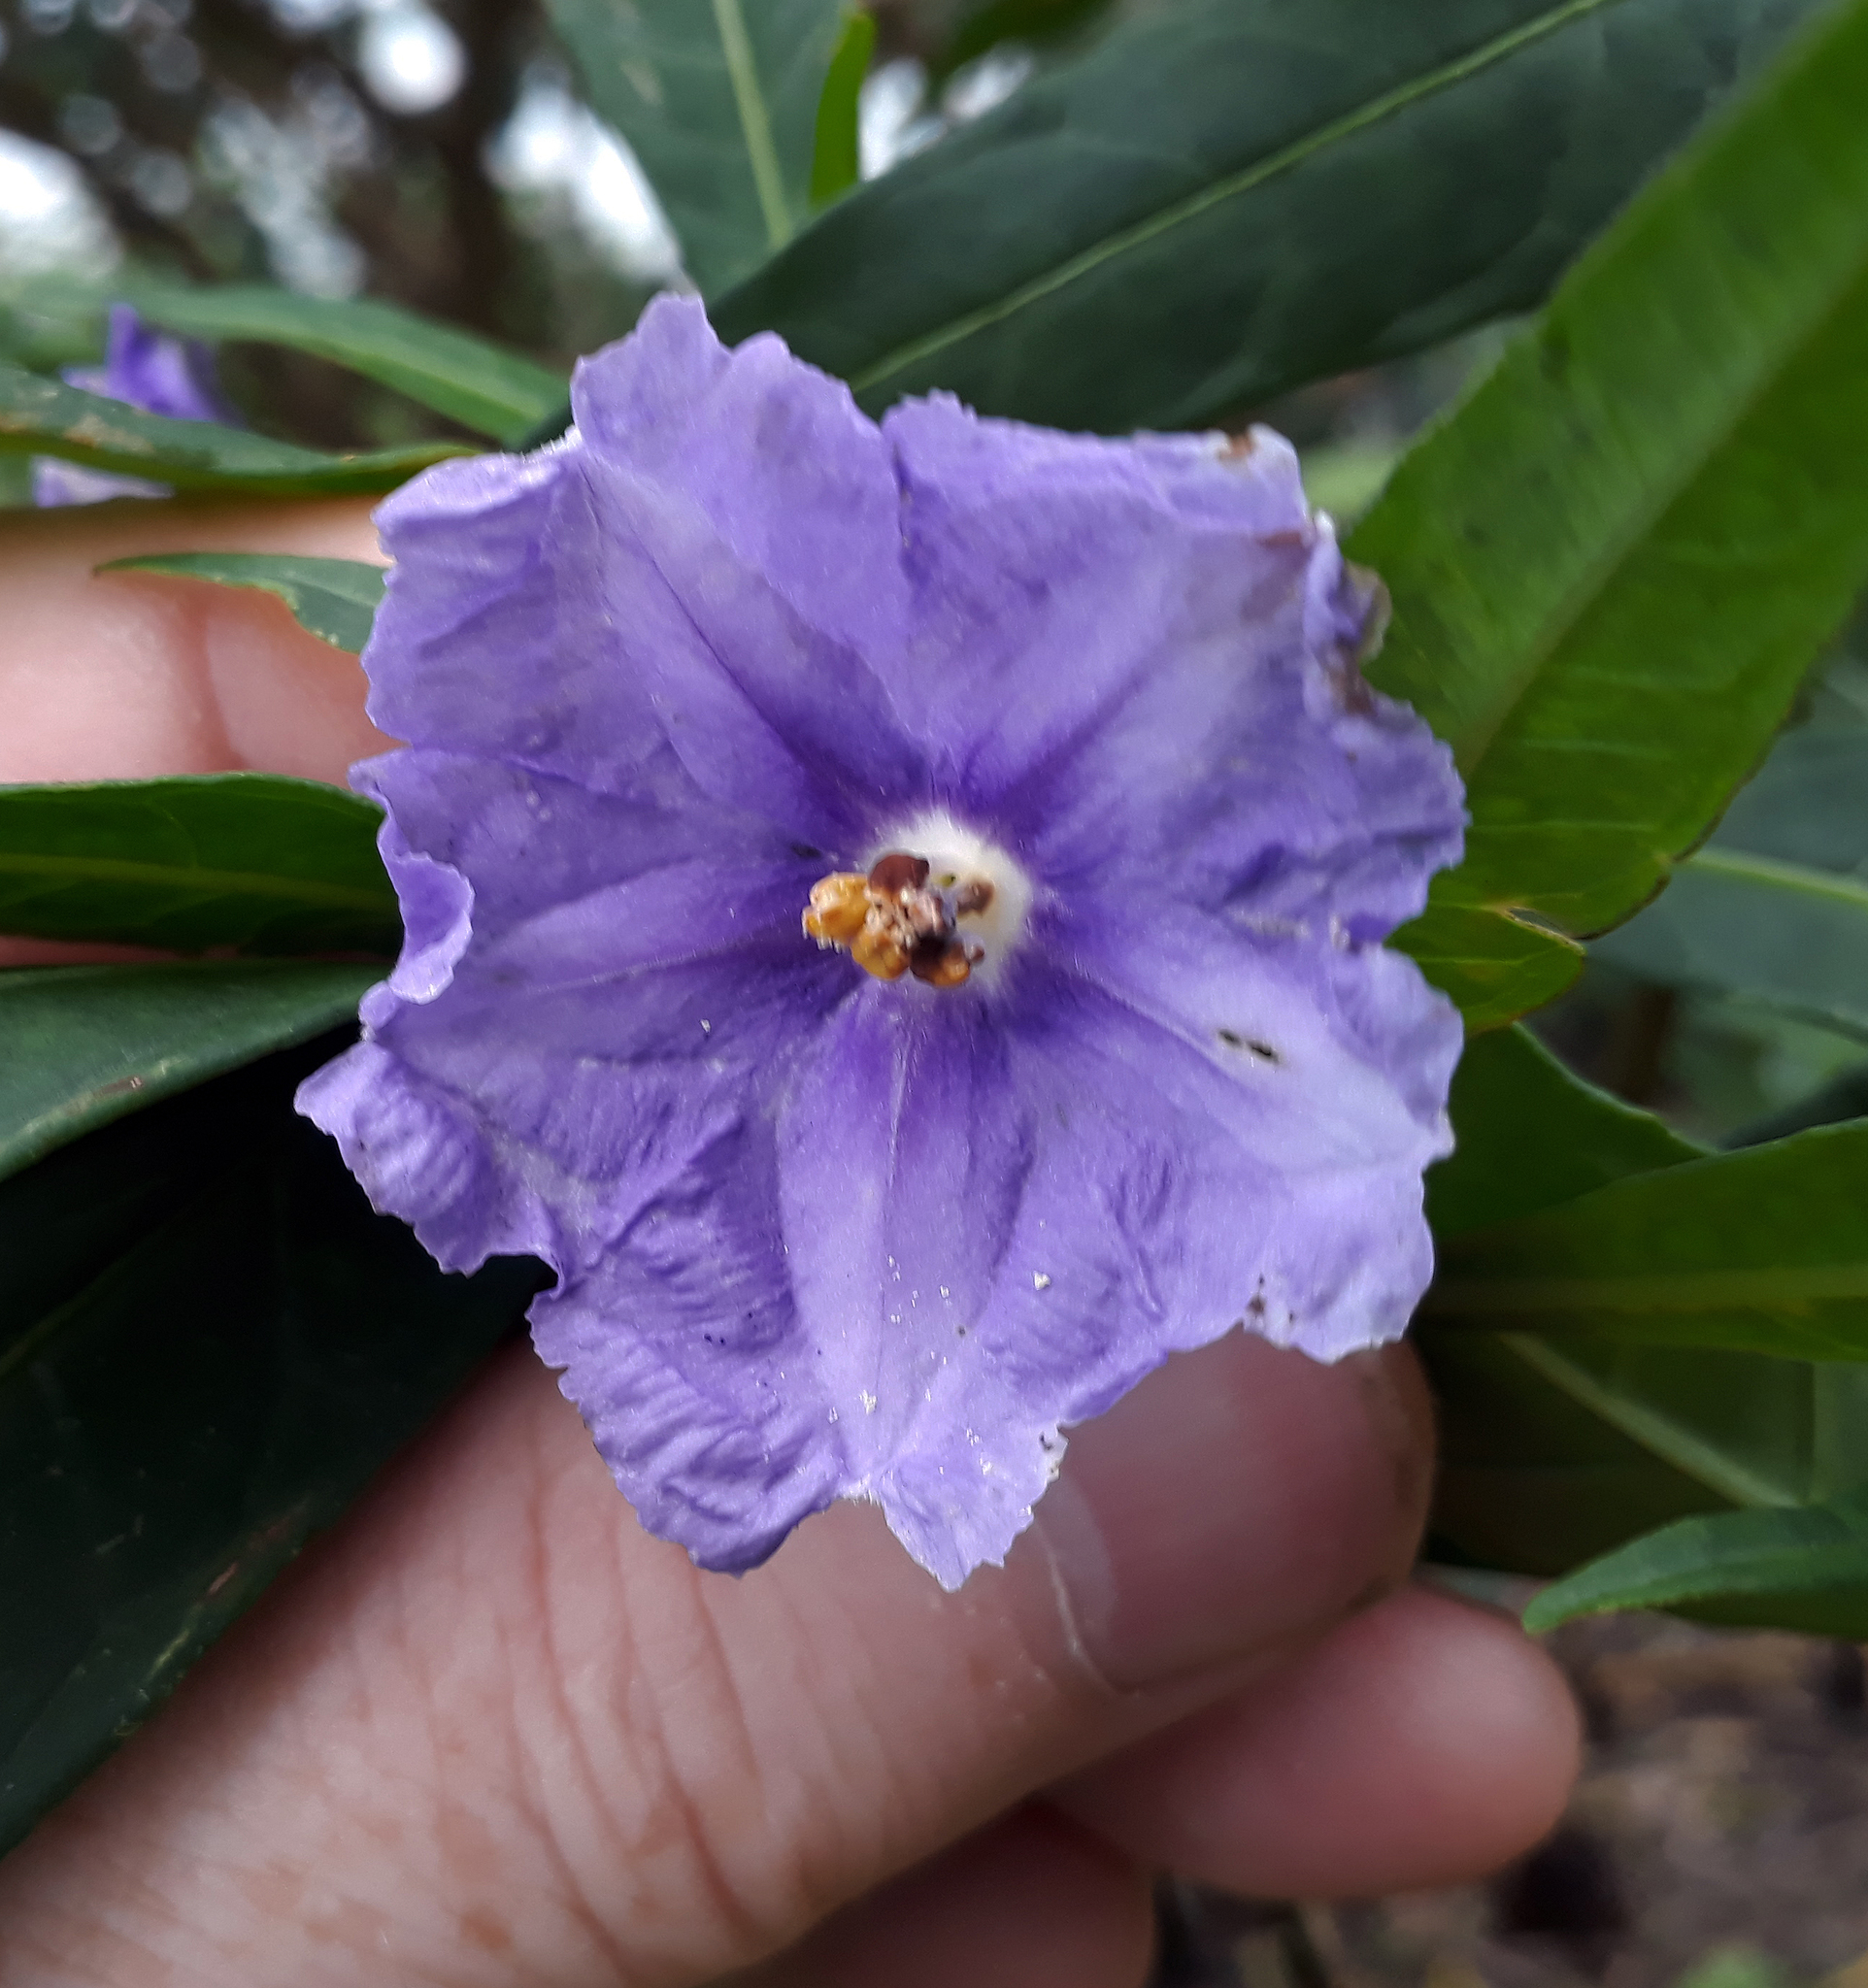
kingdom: Plantae
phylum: Tracheophyta
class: Magnoliopsida
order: Solanales
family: Solanaceae
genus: Solanum
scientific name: Solanum laciniatum
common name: Kangaroo-apple
